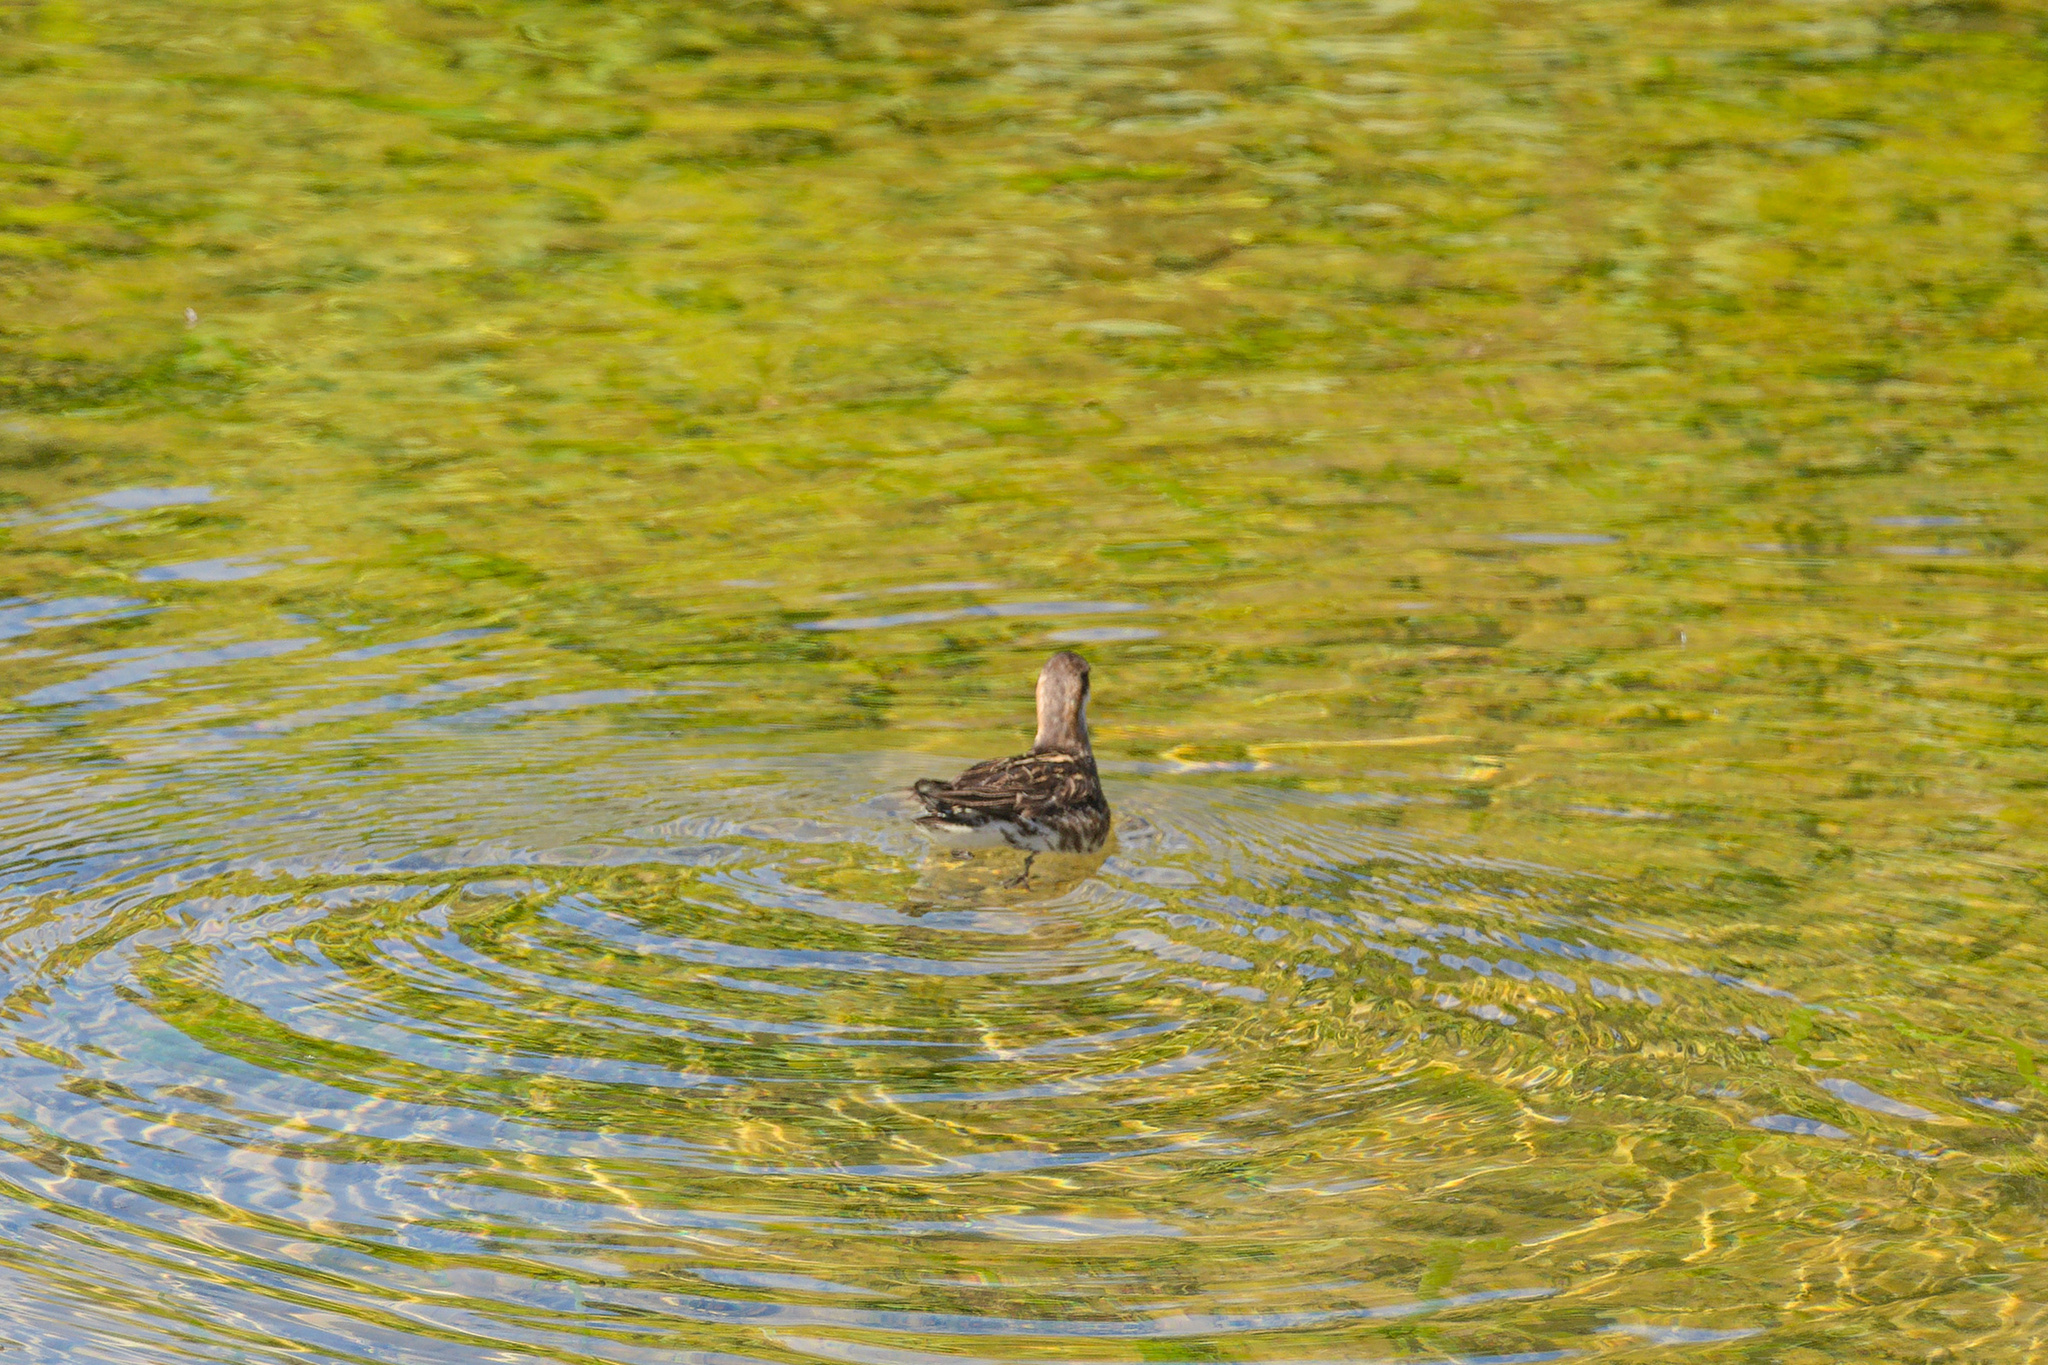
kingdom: Animalia
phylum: Chordata
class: Aves
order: Charadriiformes
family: Scolopacidae
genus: Phalaropus
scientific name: Phalaropus lobatus
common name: Red-necked phalarope
